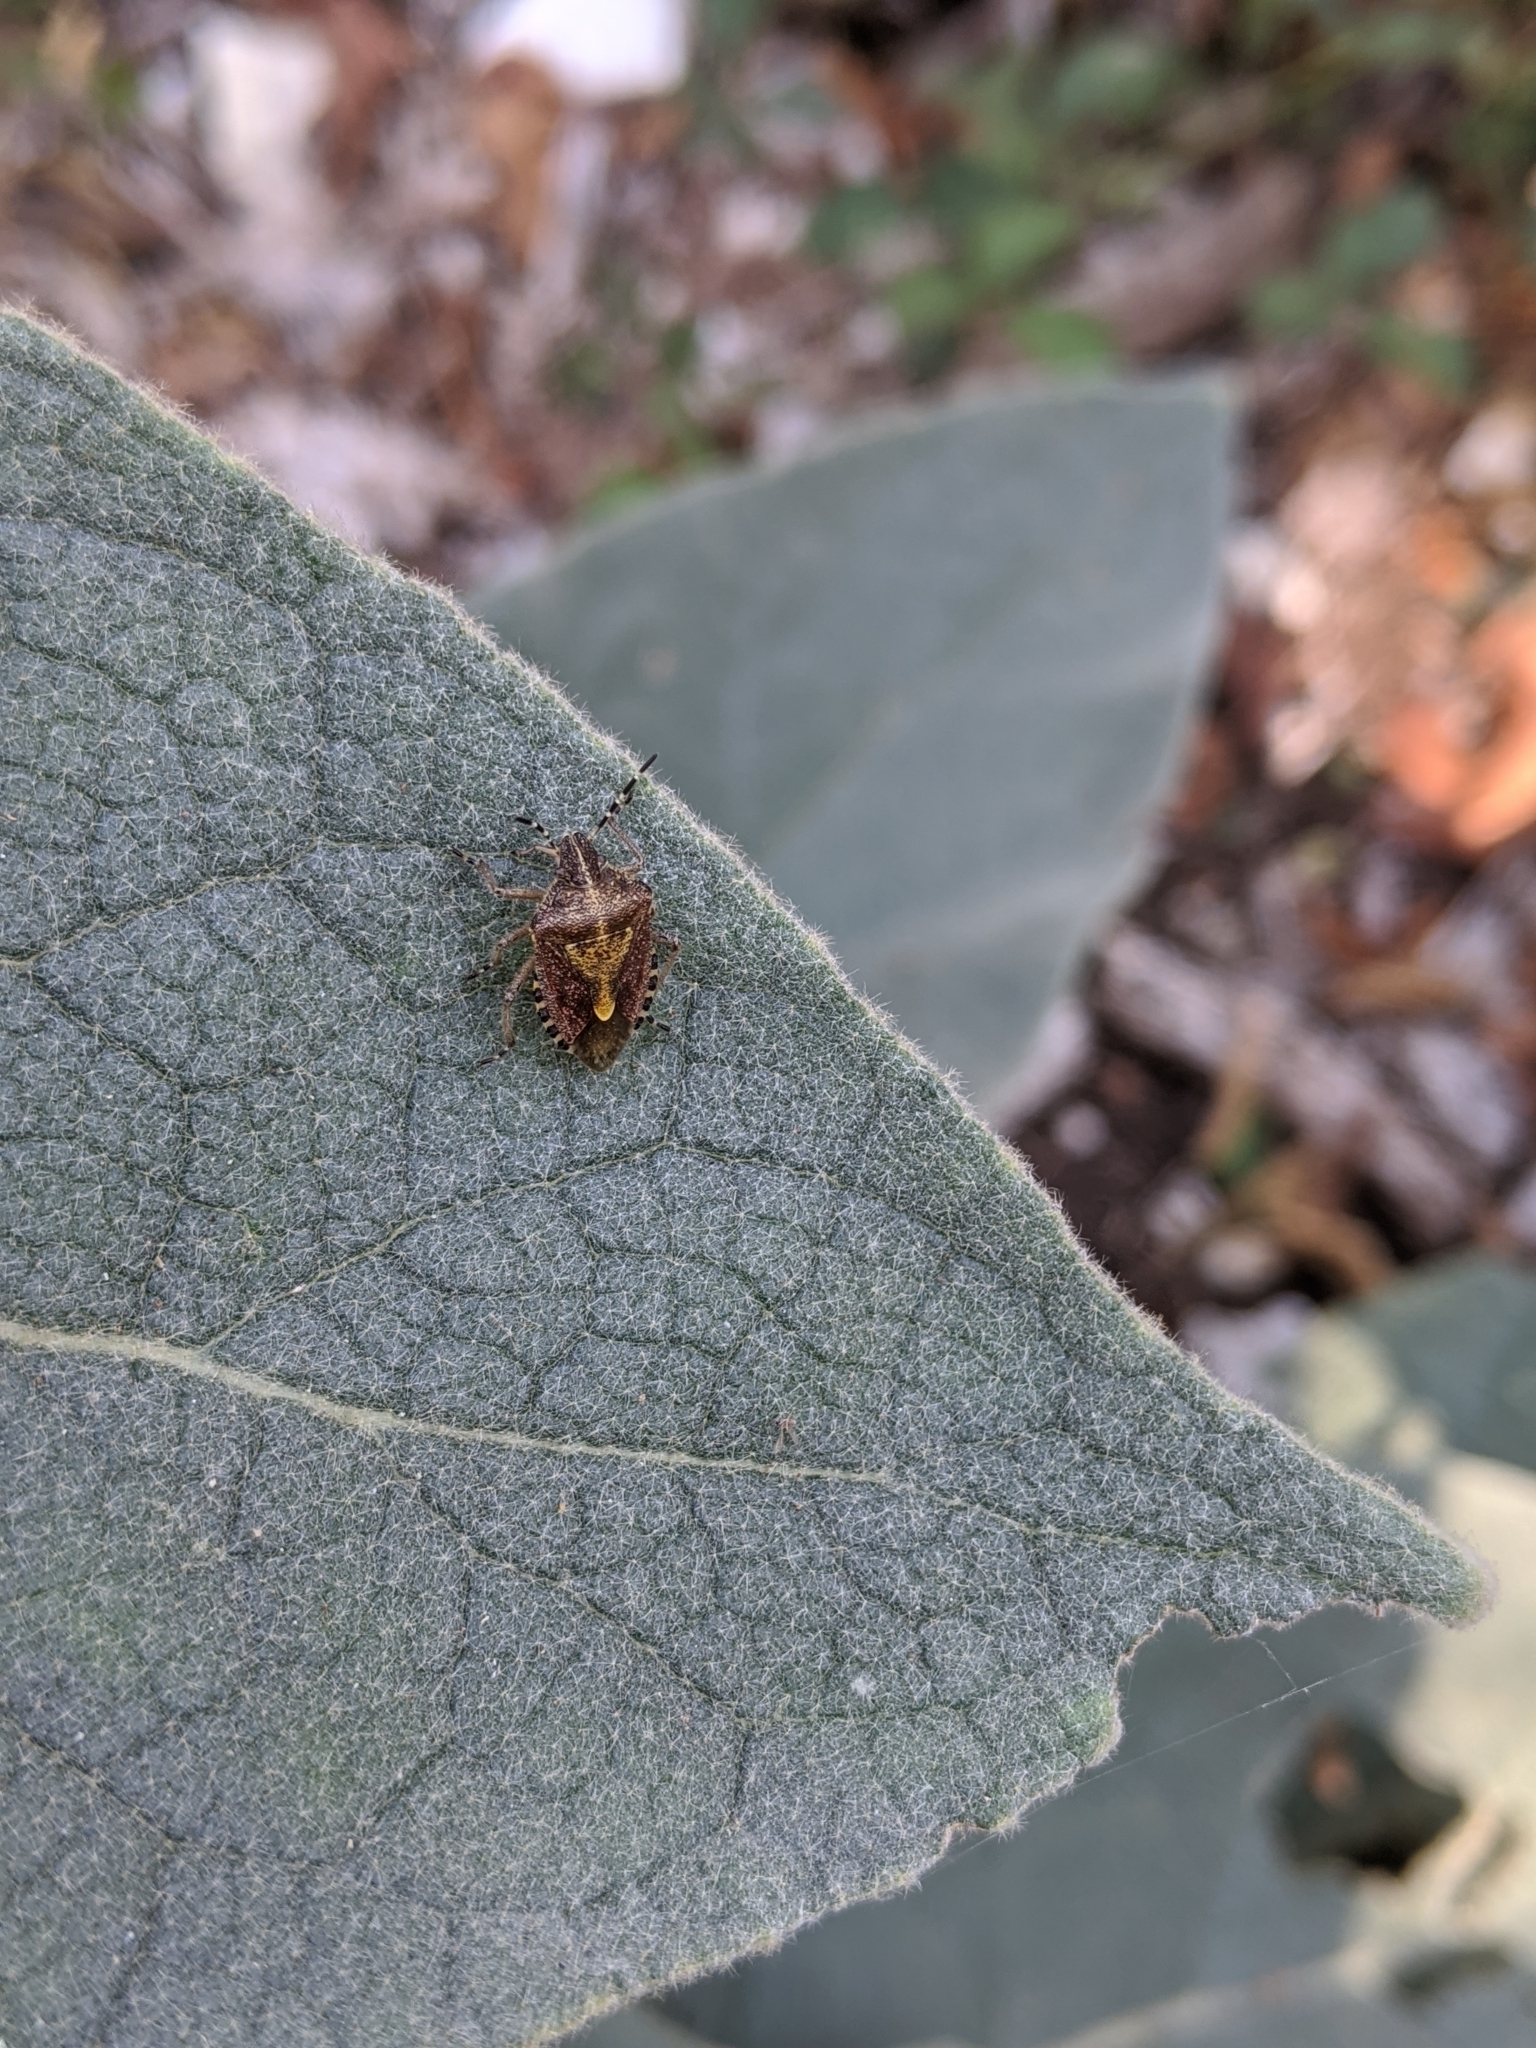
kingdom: Animalia
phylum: Arthropoda
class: Insecta
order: Hemiptera
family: Pentatomidae
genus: Dolycoris
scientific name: Dolycoris baccarum
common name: Sloe bug
